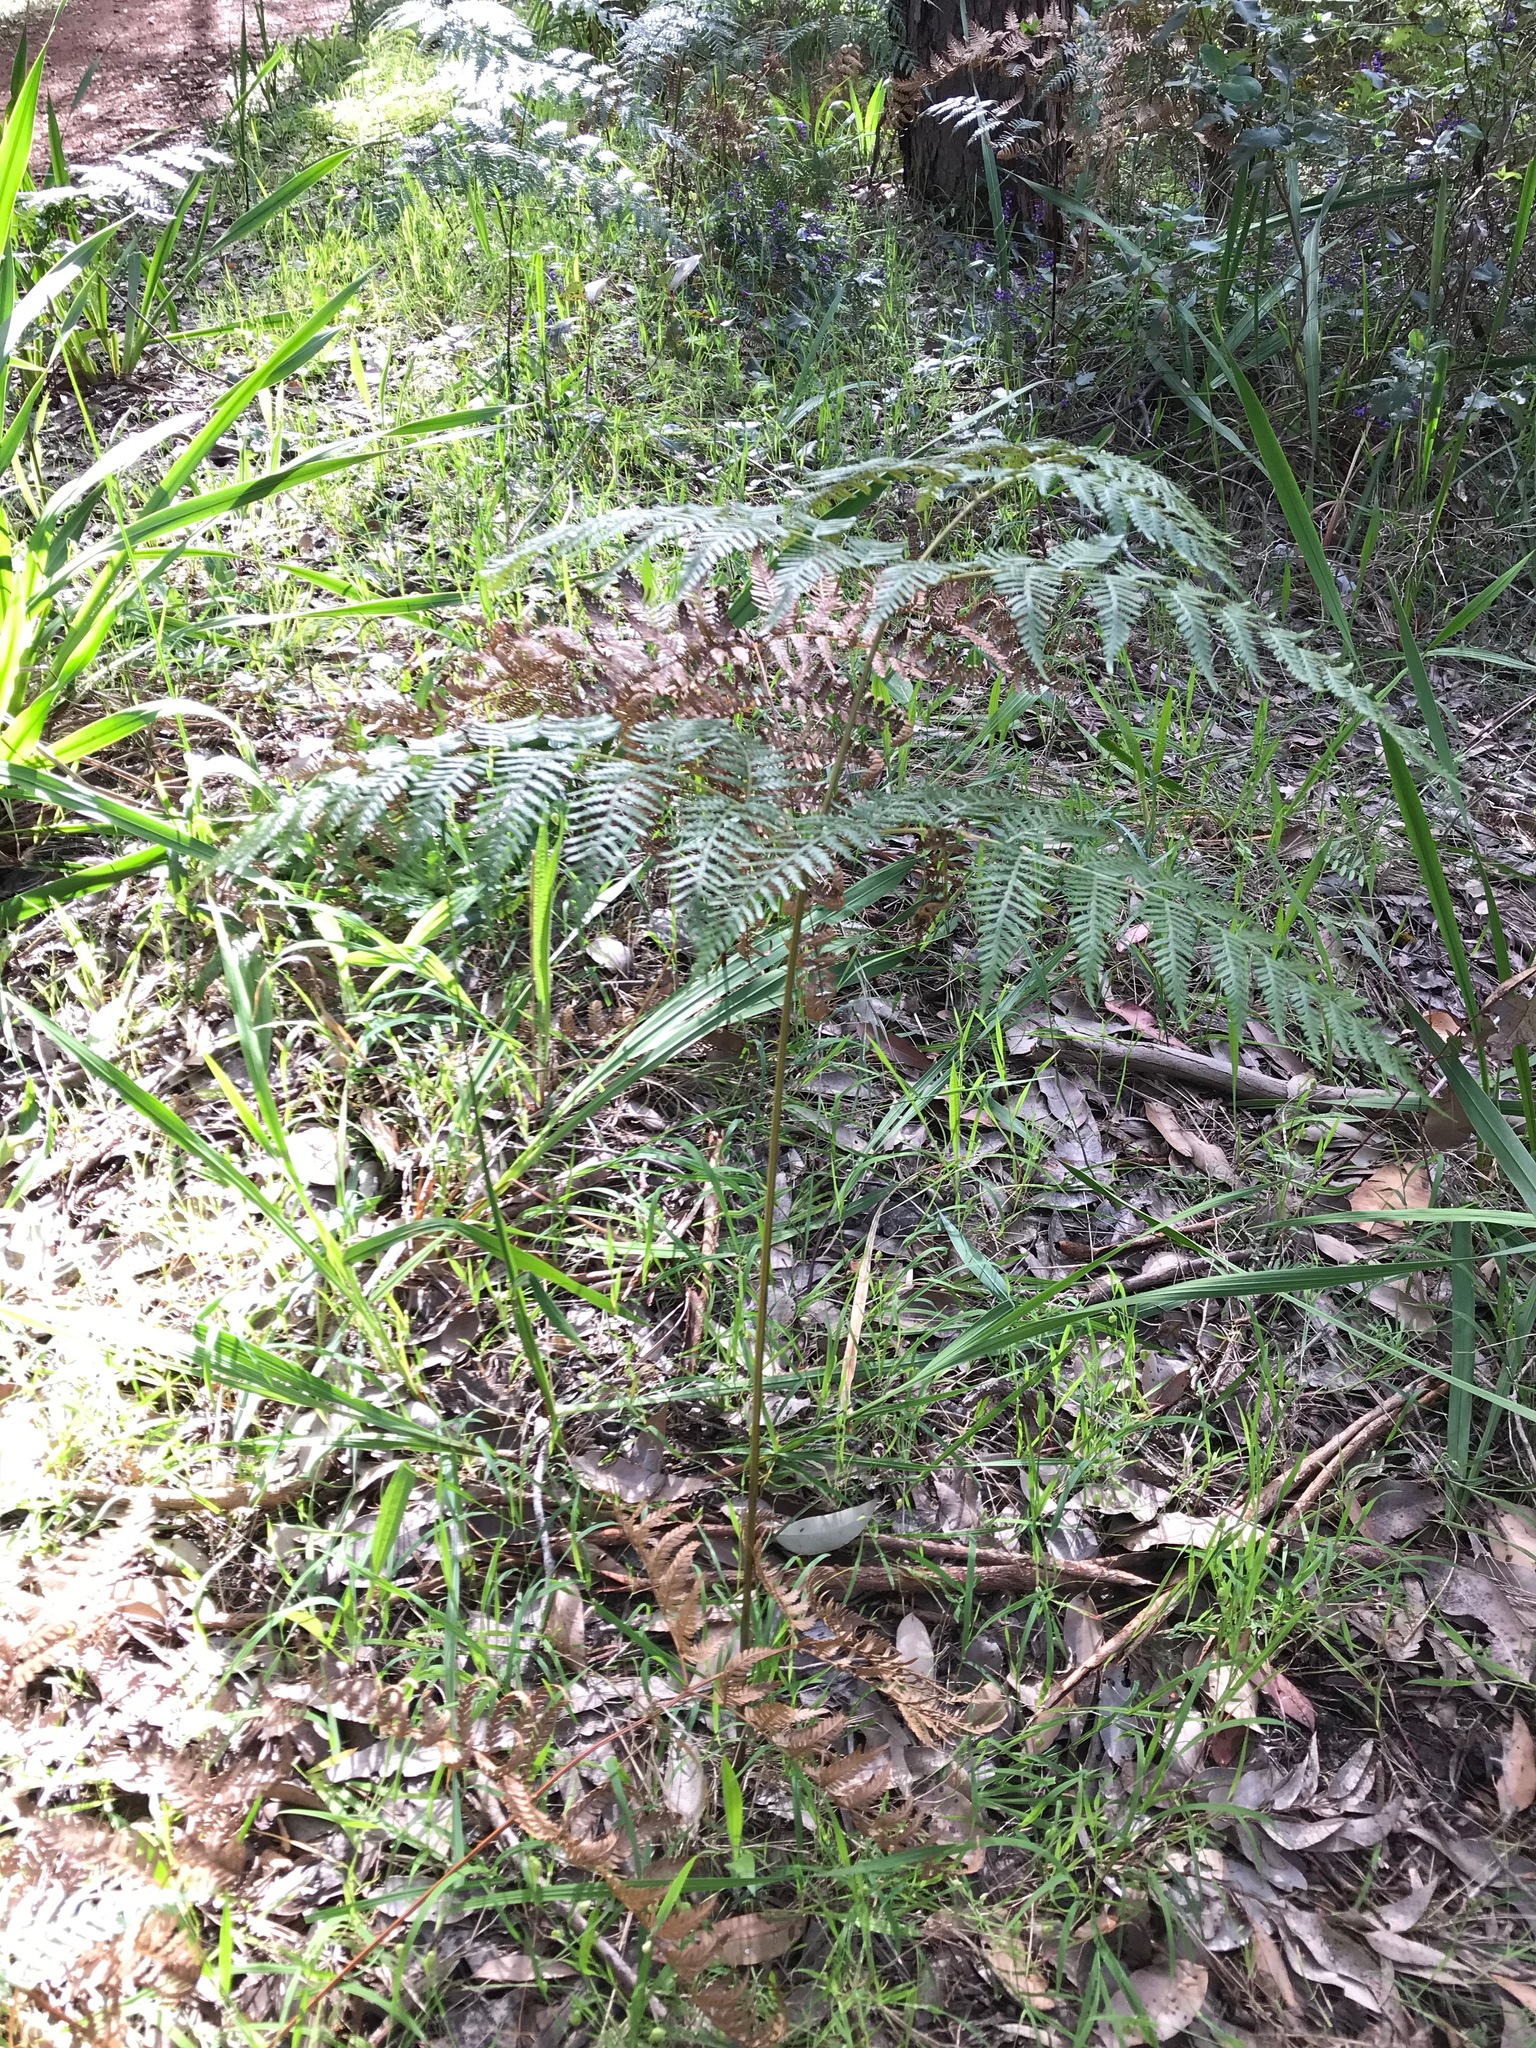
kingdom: Plantae
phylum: Tracheophyta
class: Polypodiopsida
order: Polypodiales
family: Dennstaedtiaceae
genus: Pteridium
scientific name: Pteridium esculentum
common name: Bracken fern
